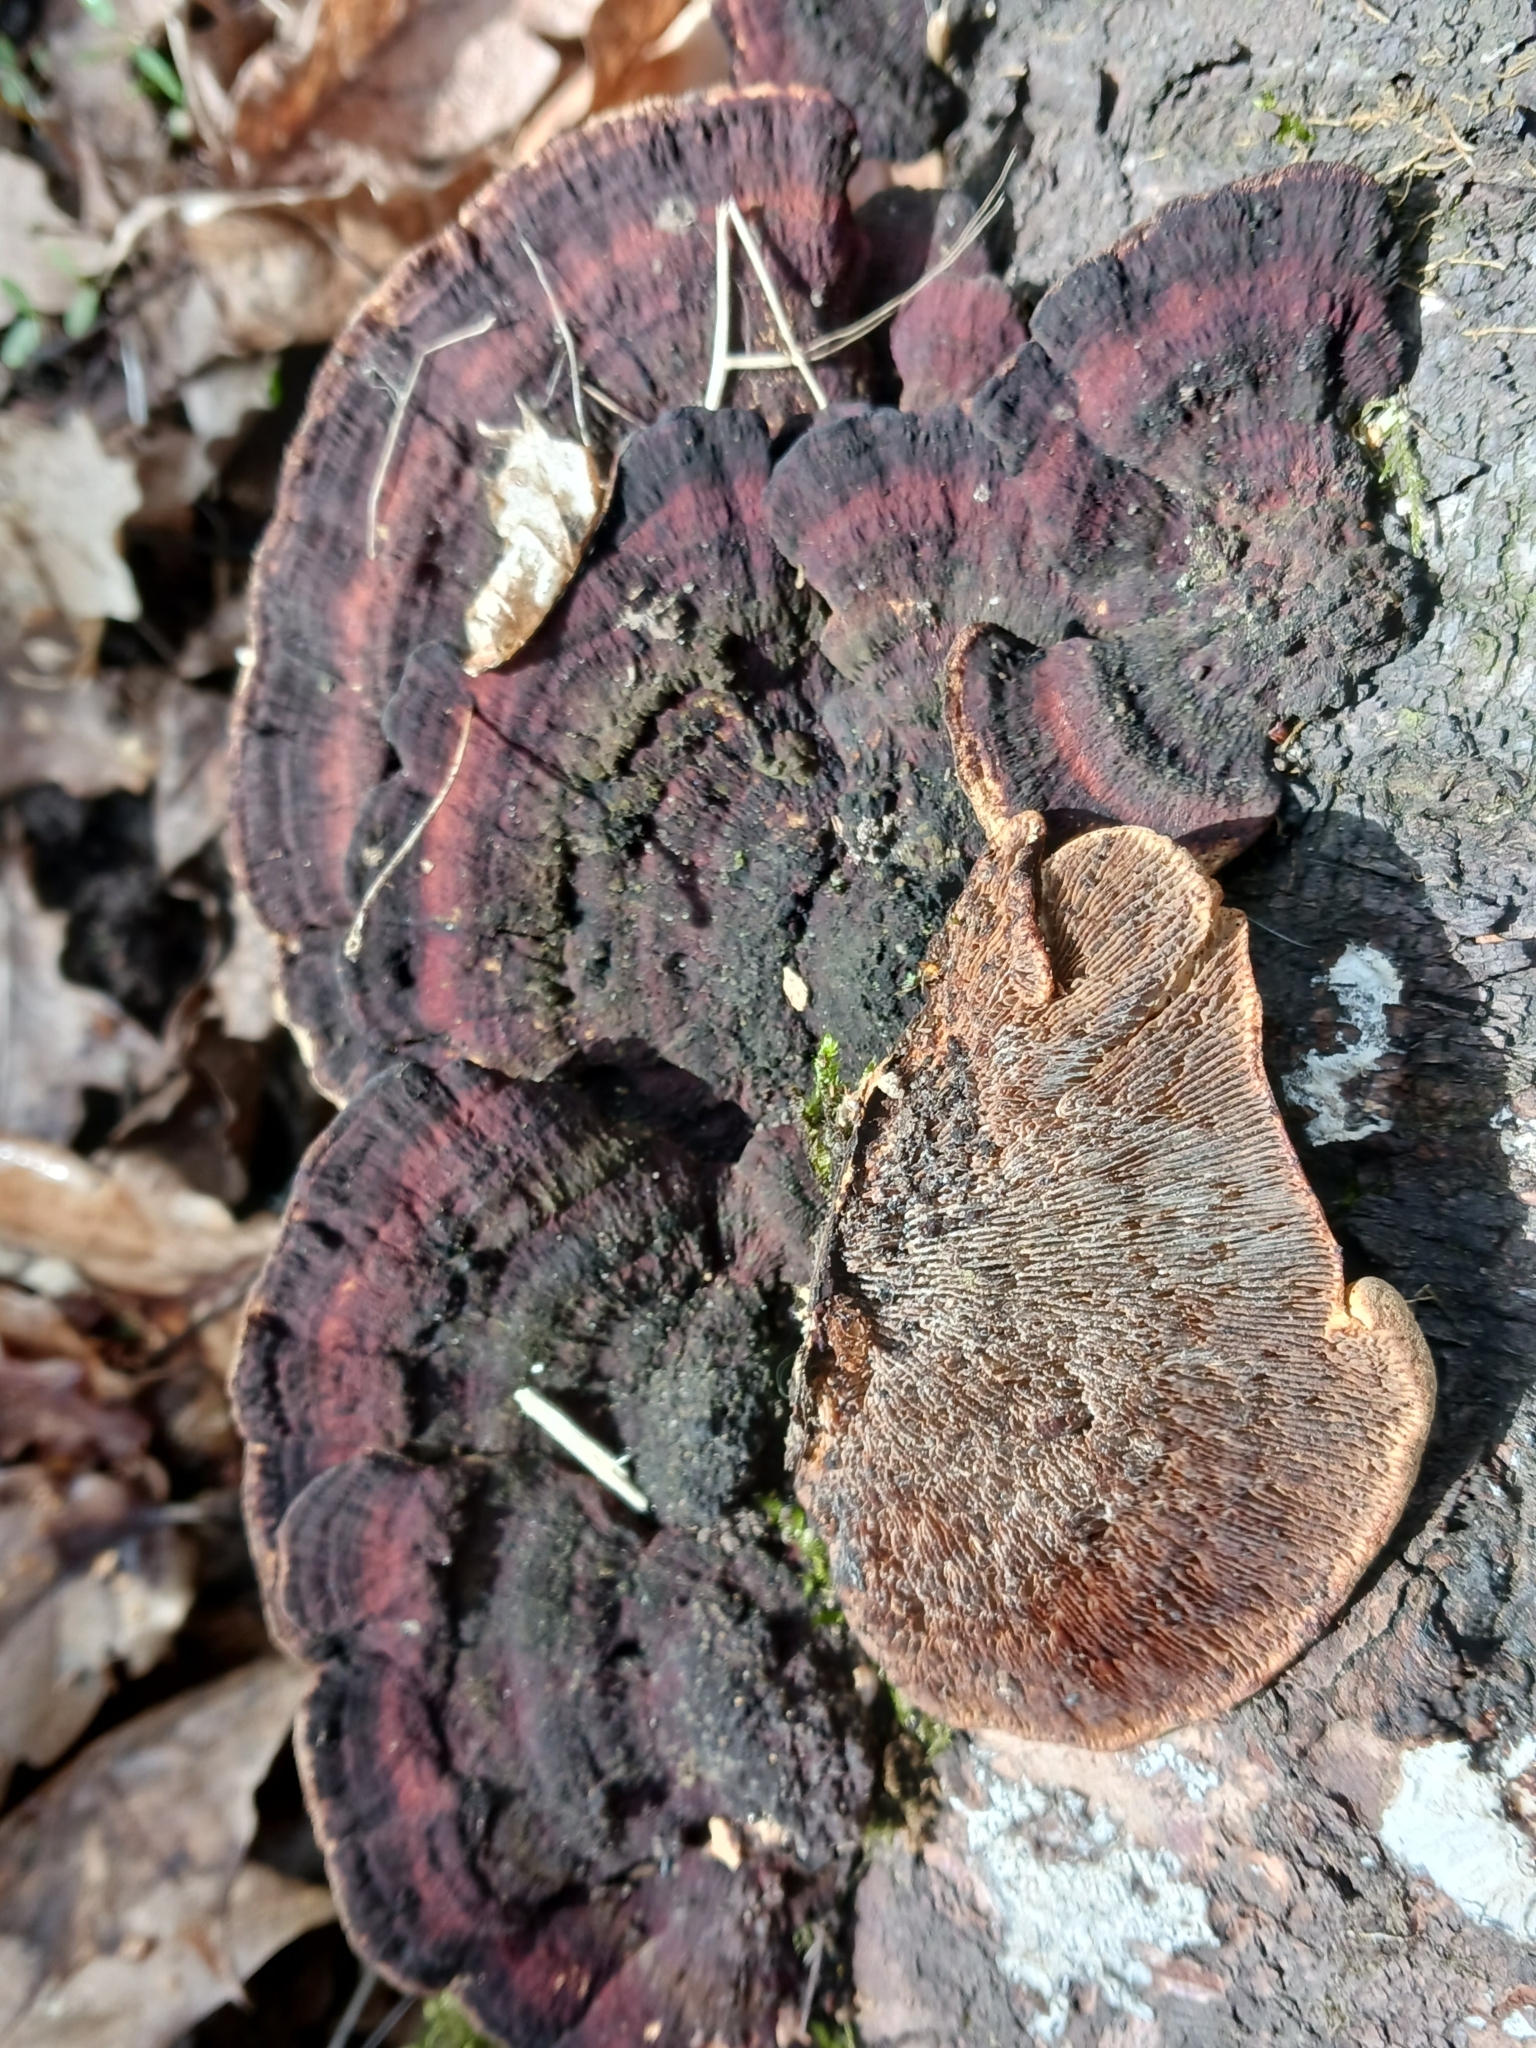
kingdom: Fungi
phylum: Basidiomycota
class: Agaricomycetes
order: Polyporales
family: Polyporaceae
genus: Daedaleopsis
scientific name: Daedaleopsis tricolor
